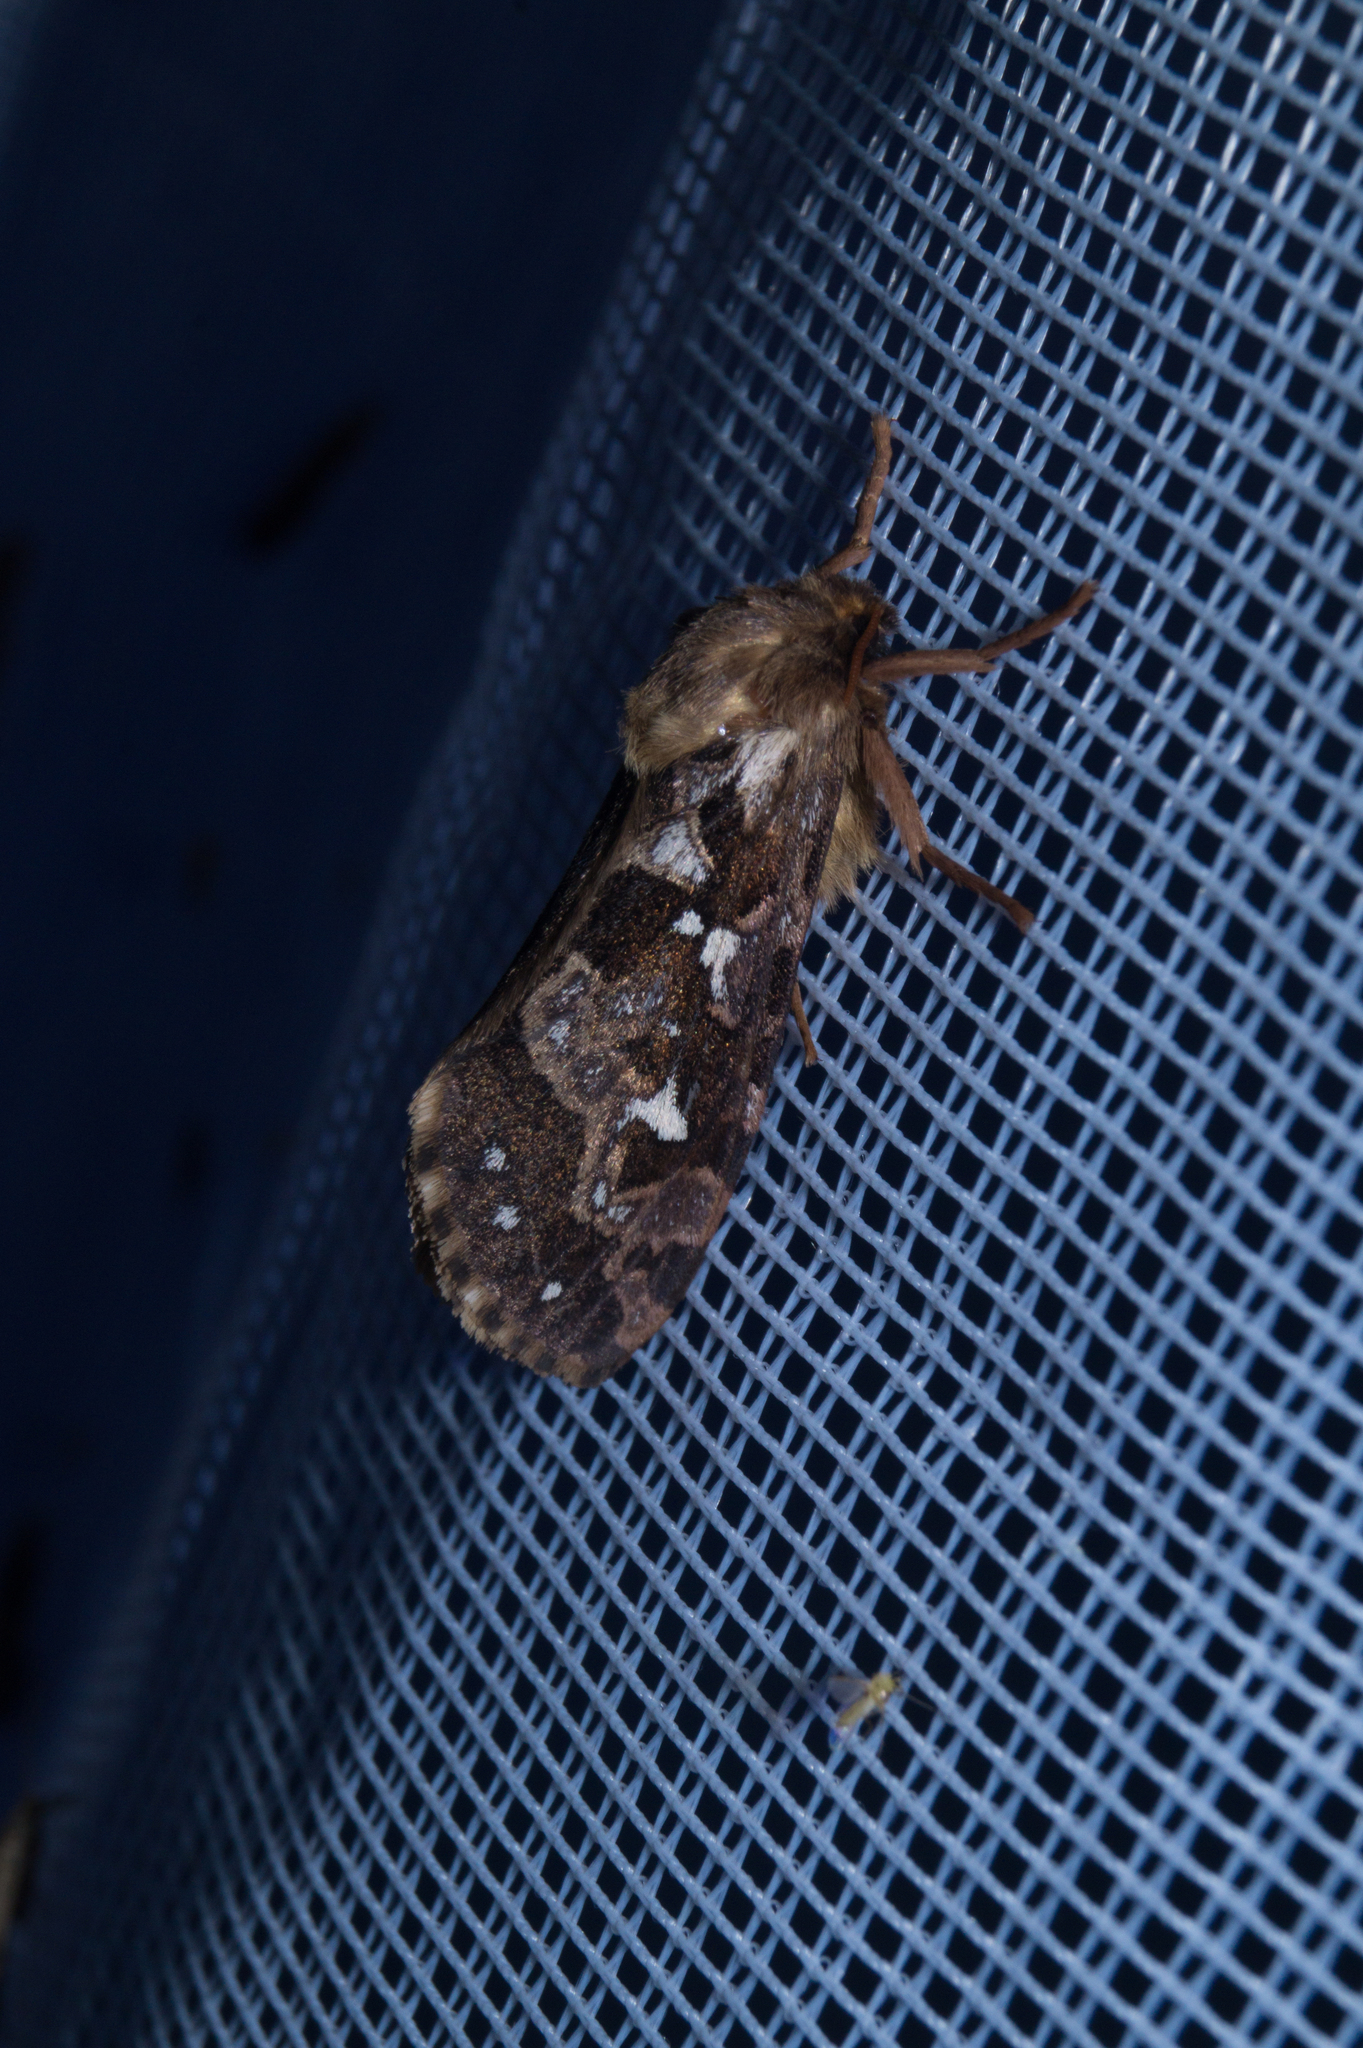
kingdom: Animalia
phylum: Arthropoda
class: Insecta
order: Lepidoptera
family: Hepialidae
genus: Korscheltellus
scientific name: Korscheltellus fusconebulosus
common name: Map-winged swift
